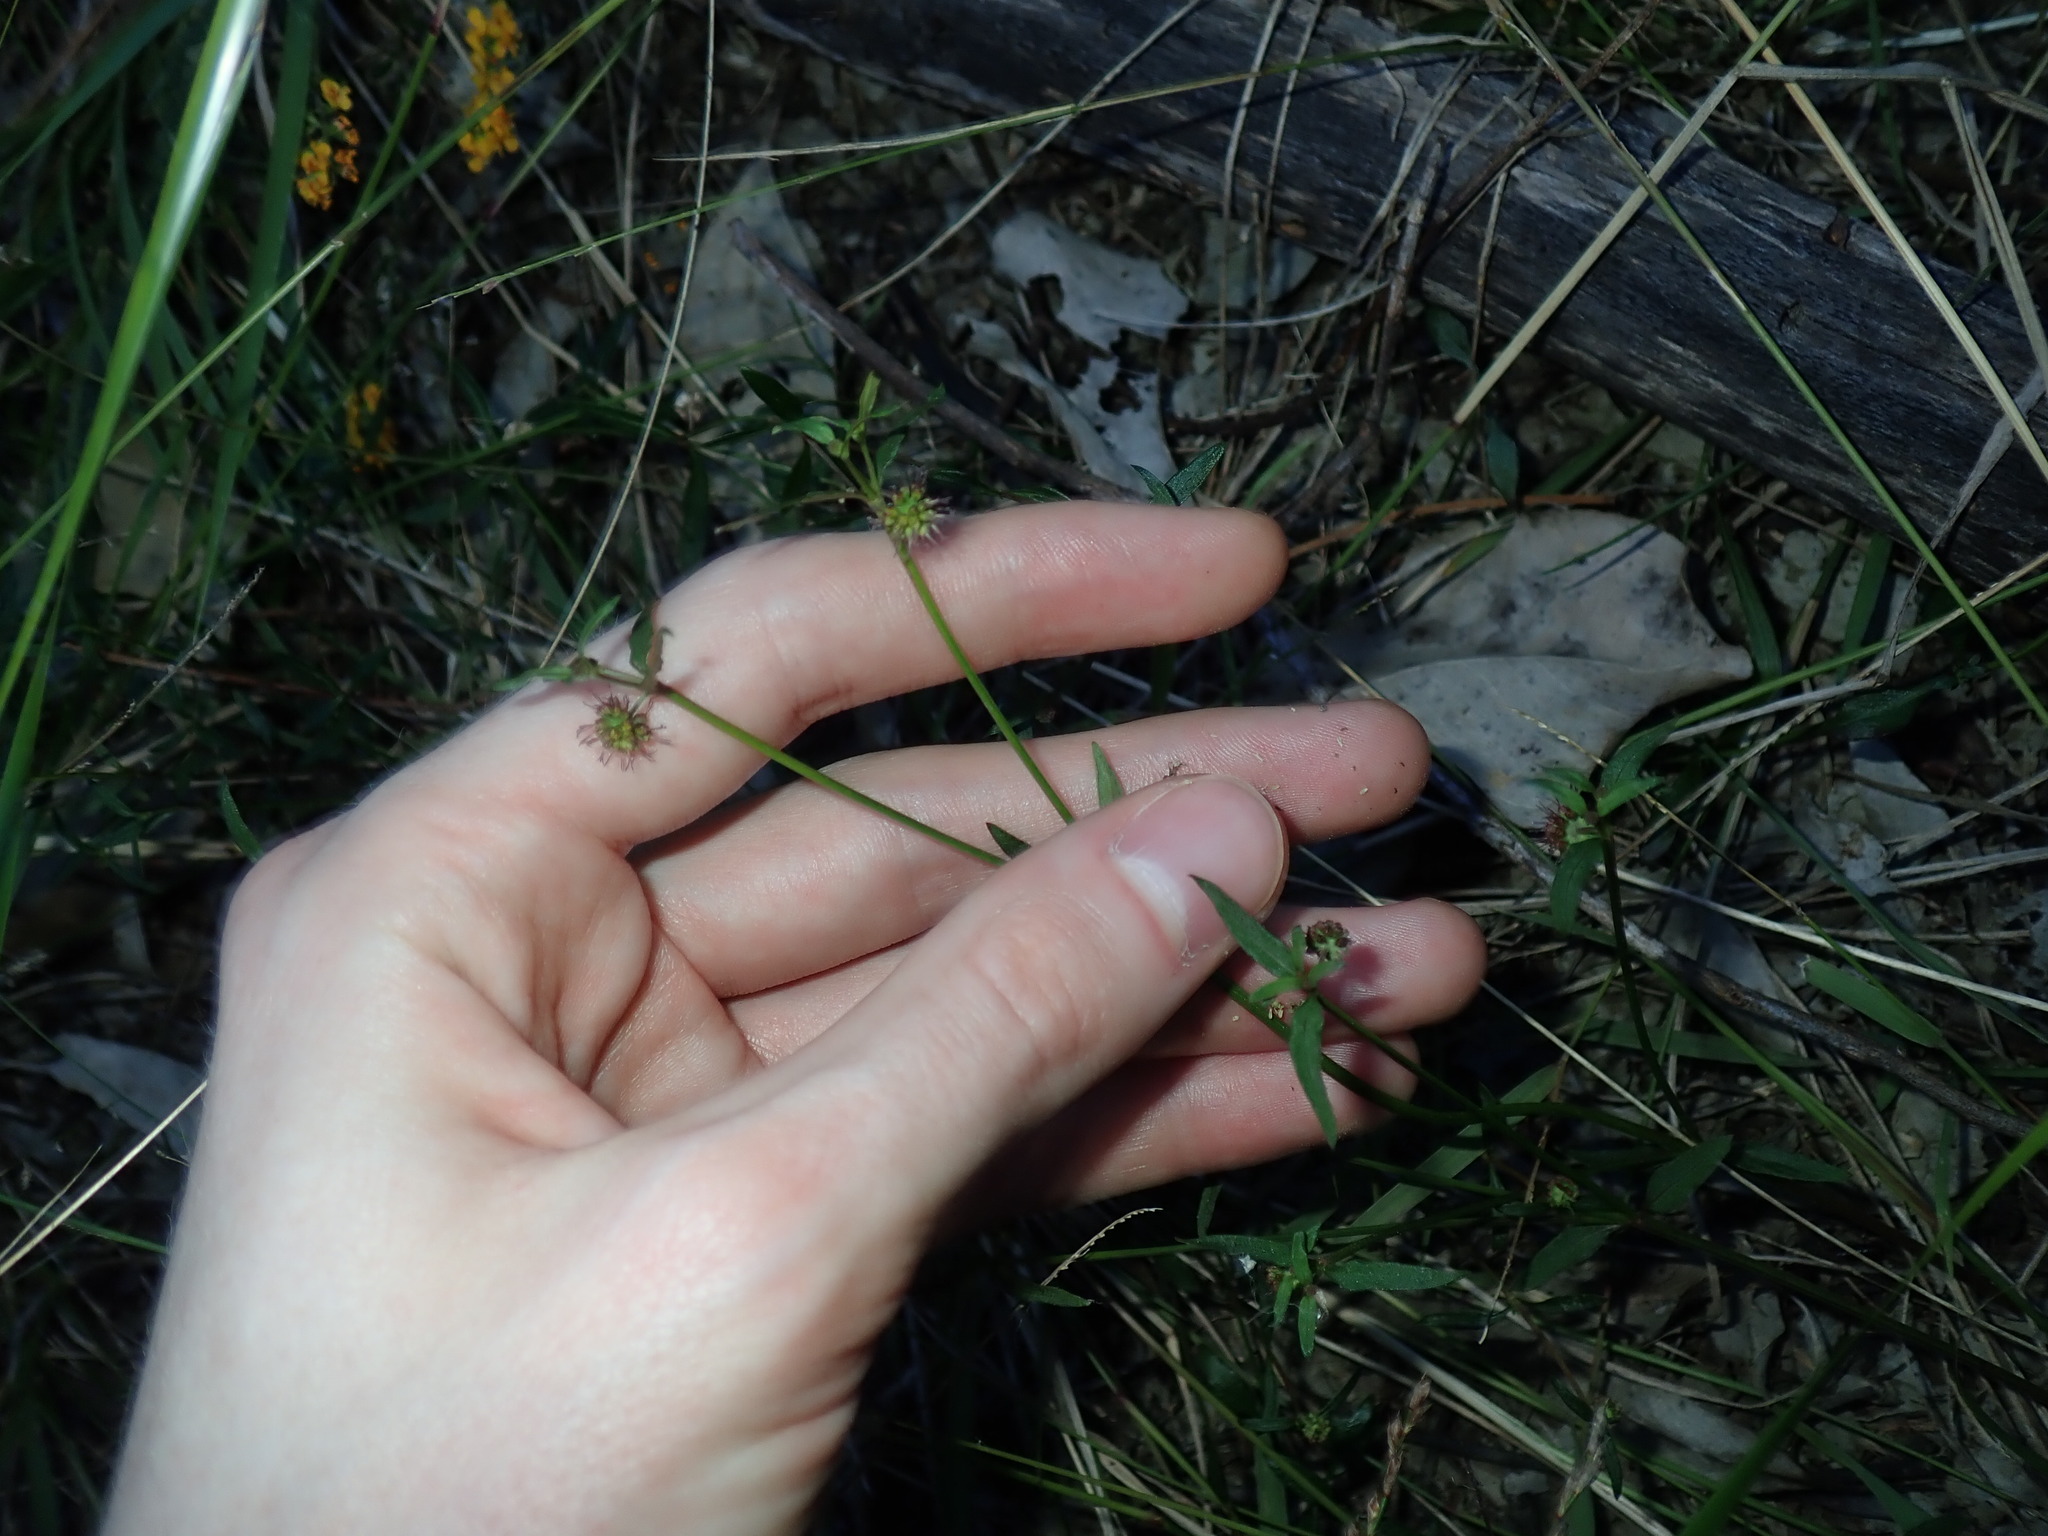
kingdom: Plantae
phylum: Tracheophyta
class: Magnoliopsida
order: Gentianales
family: Rubiaceae
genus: Opercularia
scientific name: Opercularia diphylla
